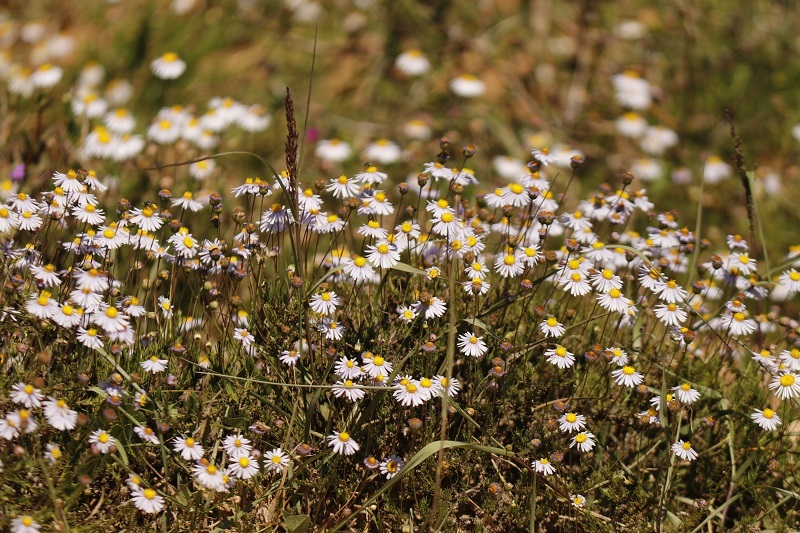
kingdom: Plantae
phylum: Tracheophyta
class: Magnoliopsida
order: Asterales
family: Asteraceae
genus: Felicia
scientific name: Felicia muricata
